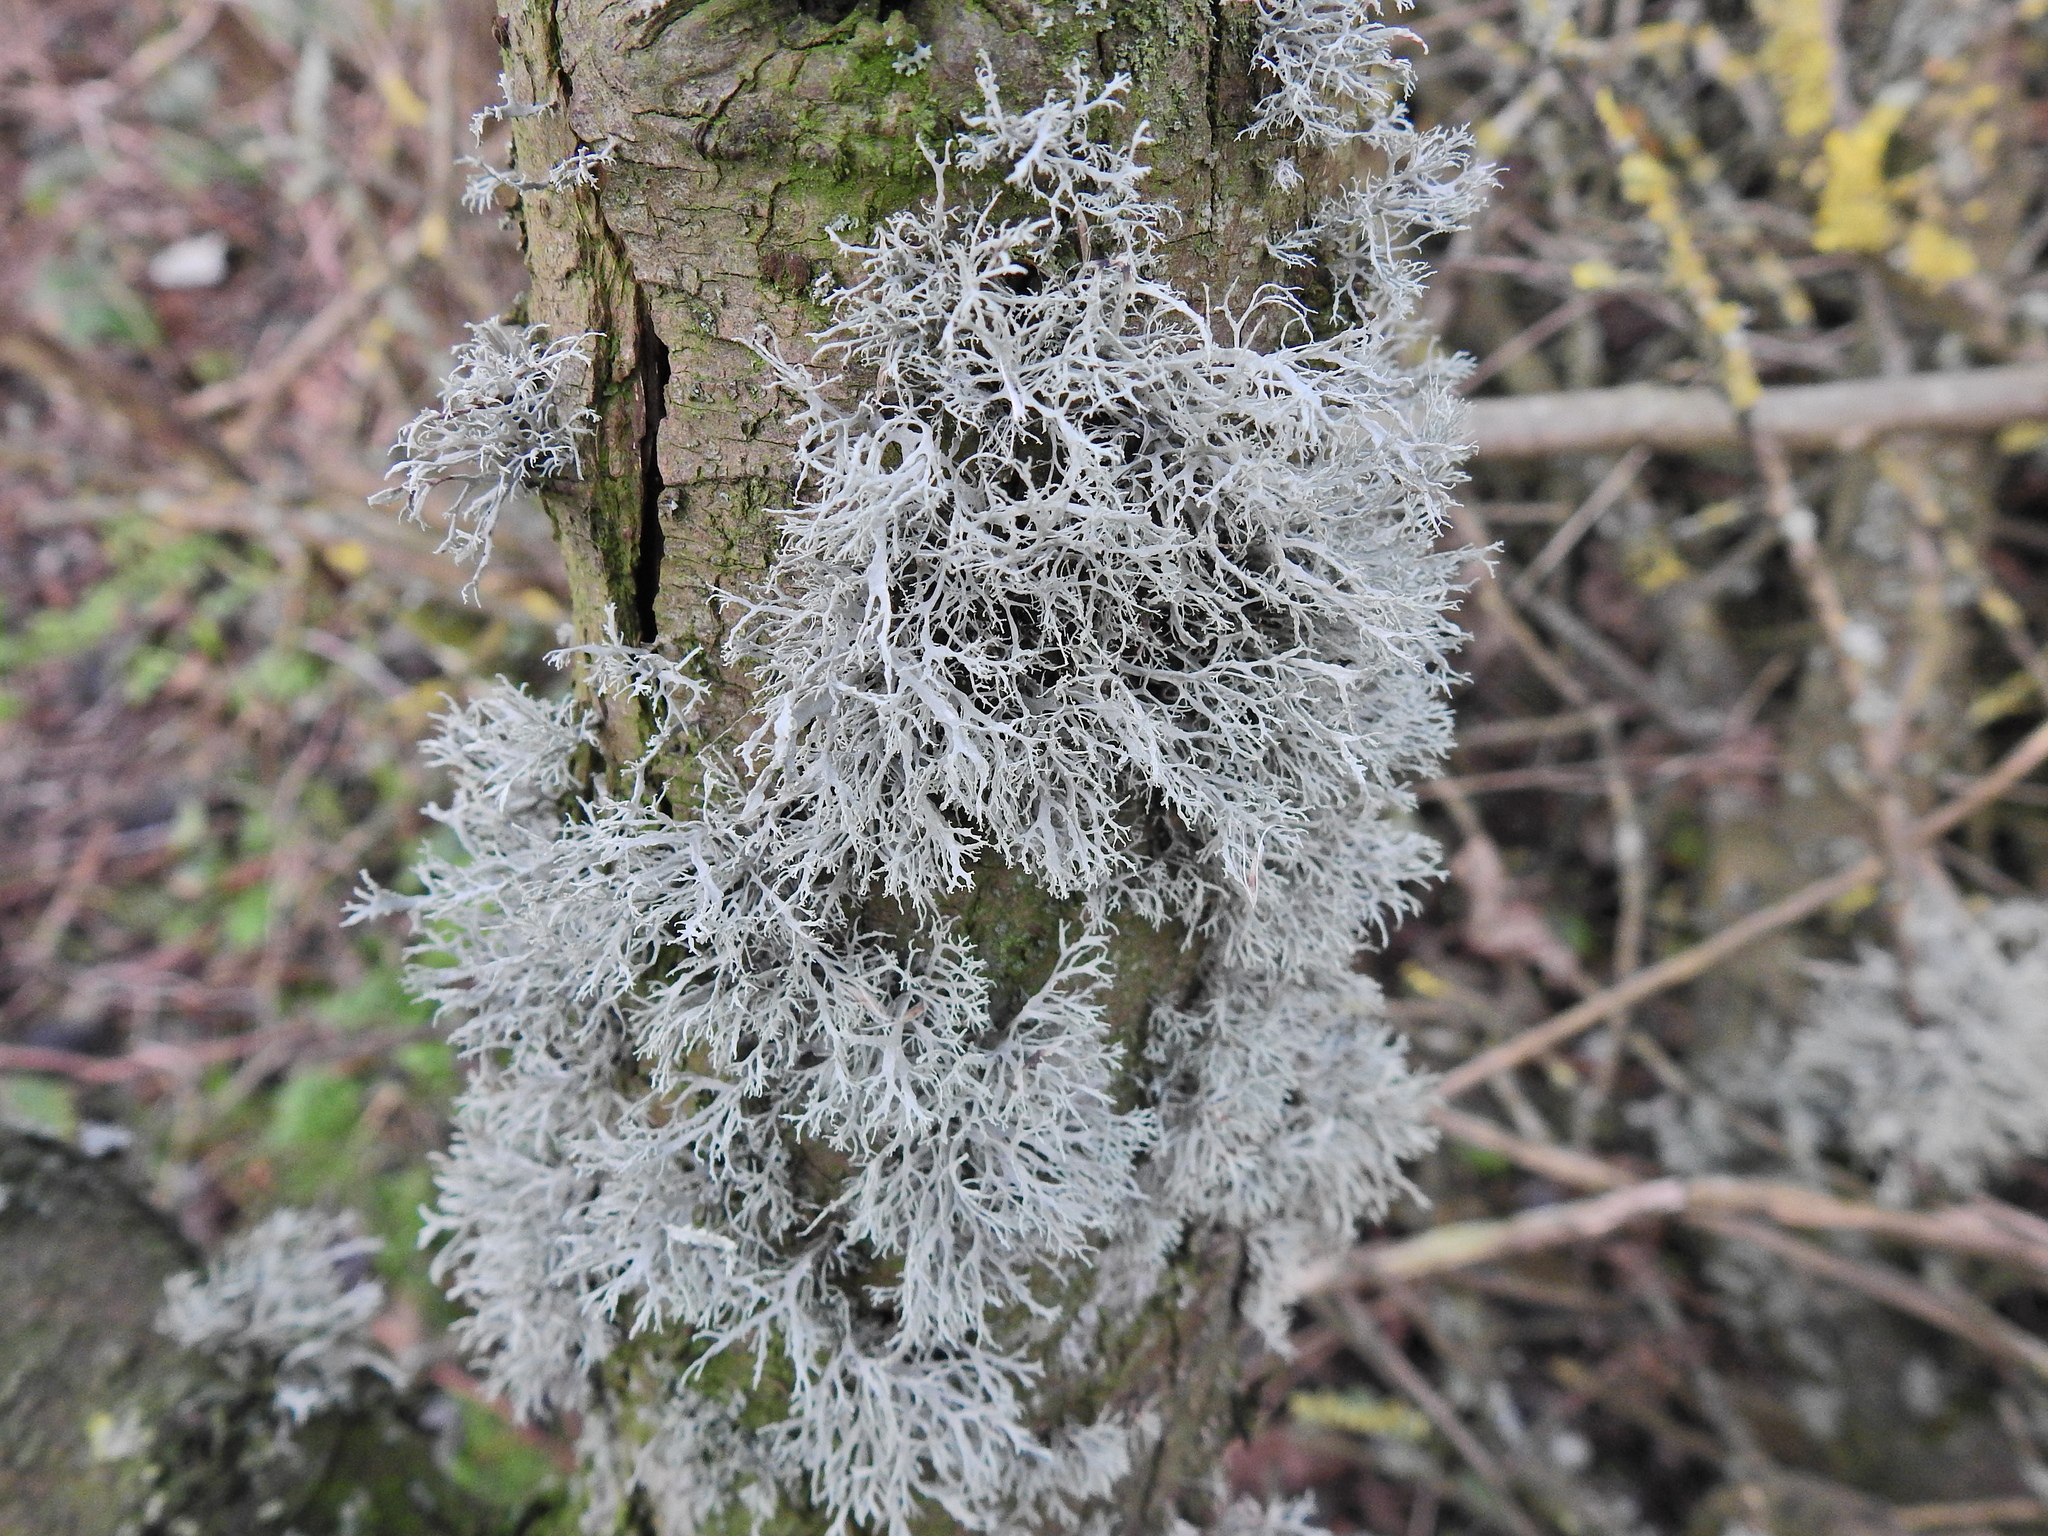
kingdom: Fungi
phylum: Ascomycota
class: Lecanoromycetes
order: Lecanorales
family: Ramalinaceae
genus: Ramalina
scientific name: Ramalina farinacea
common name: Farinose cartilage lichen
